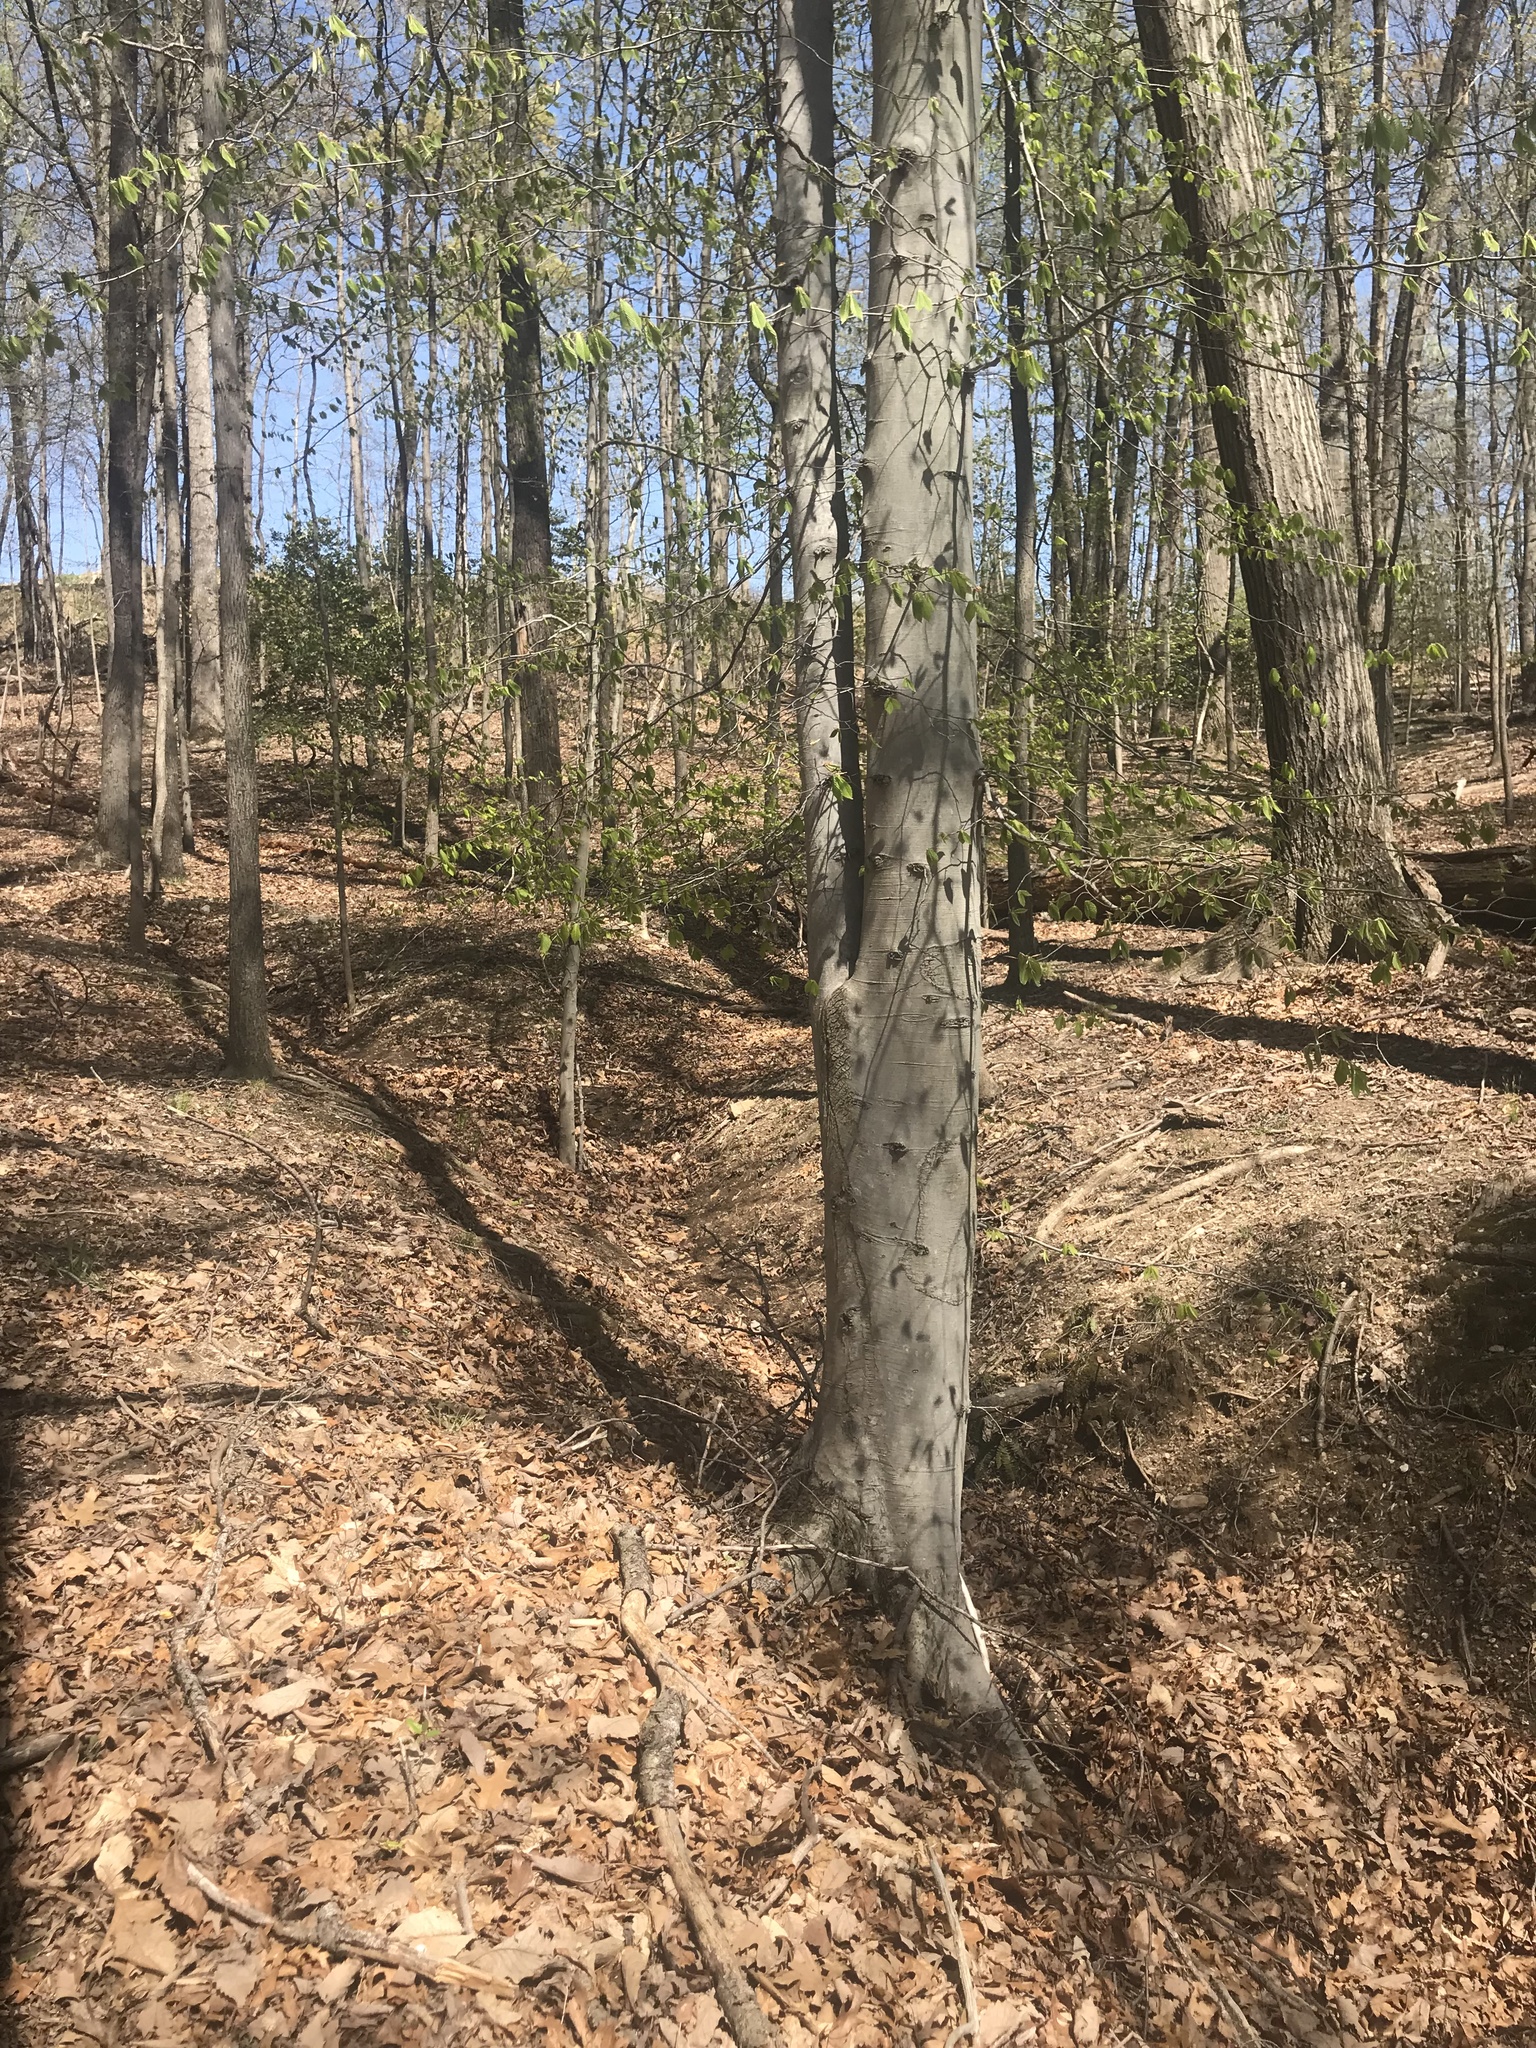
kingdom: Plantae
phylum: Tracheophyta
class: Magnoliopsida
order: Fagales
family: Fagaceae
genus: Fagus
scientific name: Fagus grandifolia
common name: American beech
